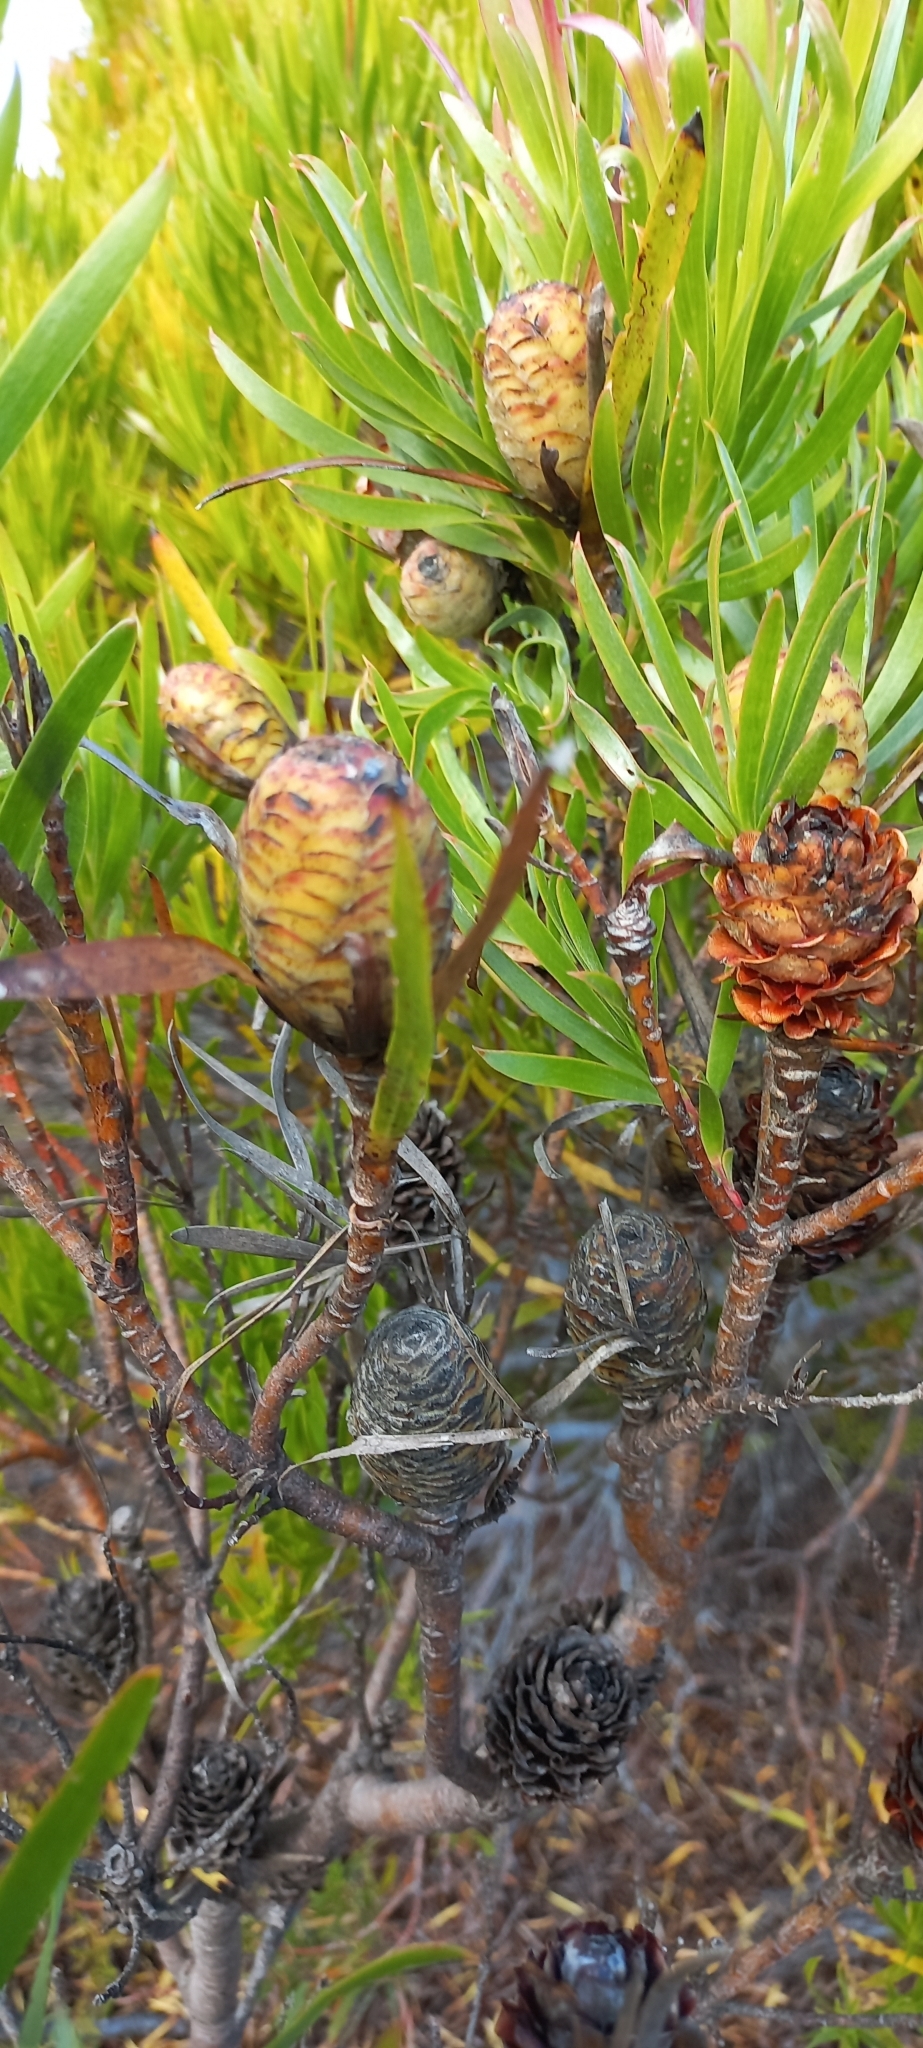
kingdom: Plantae
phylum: Tracheophyta
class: Magnoliopsida
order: Proteales
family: Proteaceae
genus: Leucadendron
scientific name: Leucadendron xanthoconus
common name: Sickle-leaf conebush
